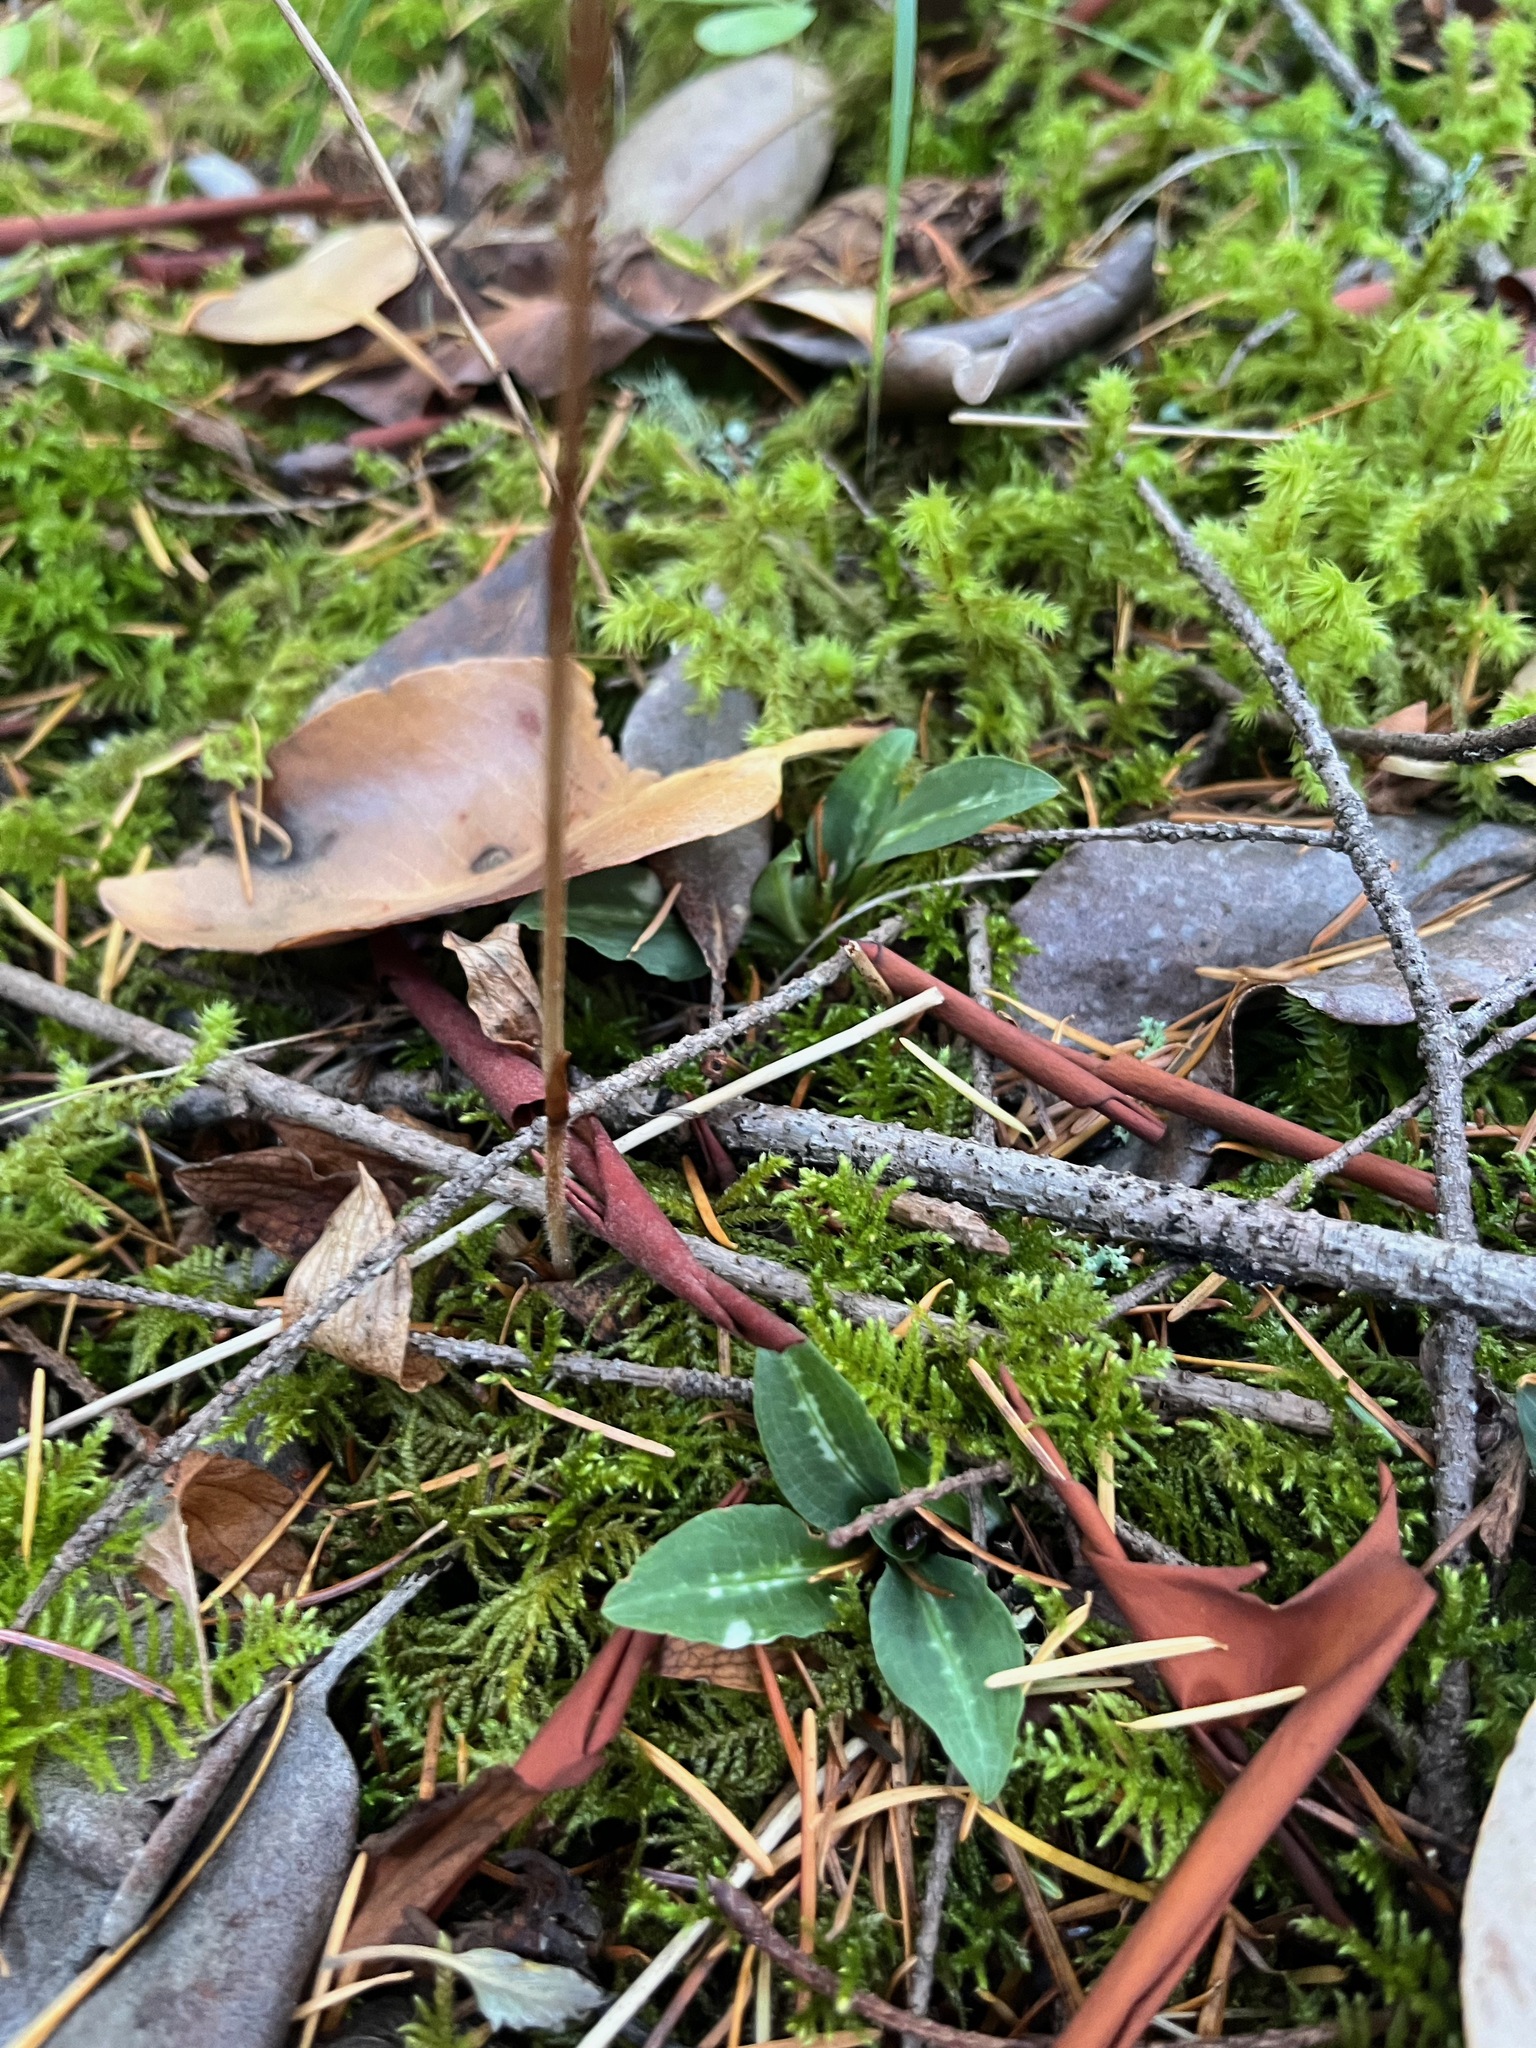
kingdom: Plantae
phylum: Tracheophyta
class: Liliopsida
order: Asparagales
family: Orchidaceae
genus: Goodyera
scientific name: Goodyera oblongifolia
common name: Giant rattlesnake-plantain
